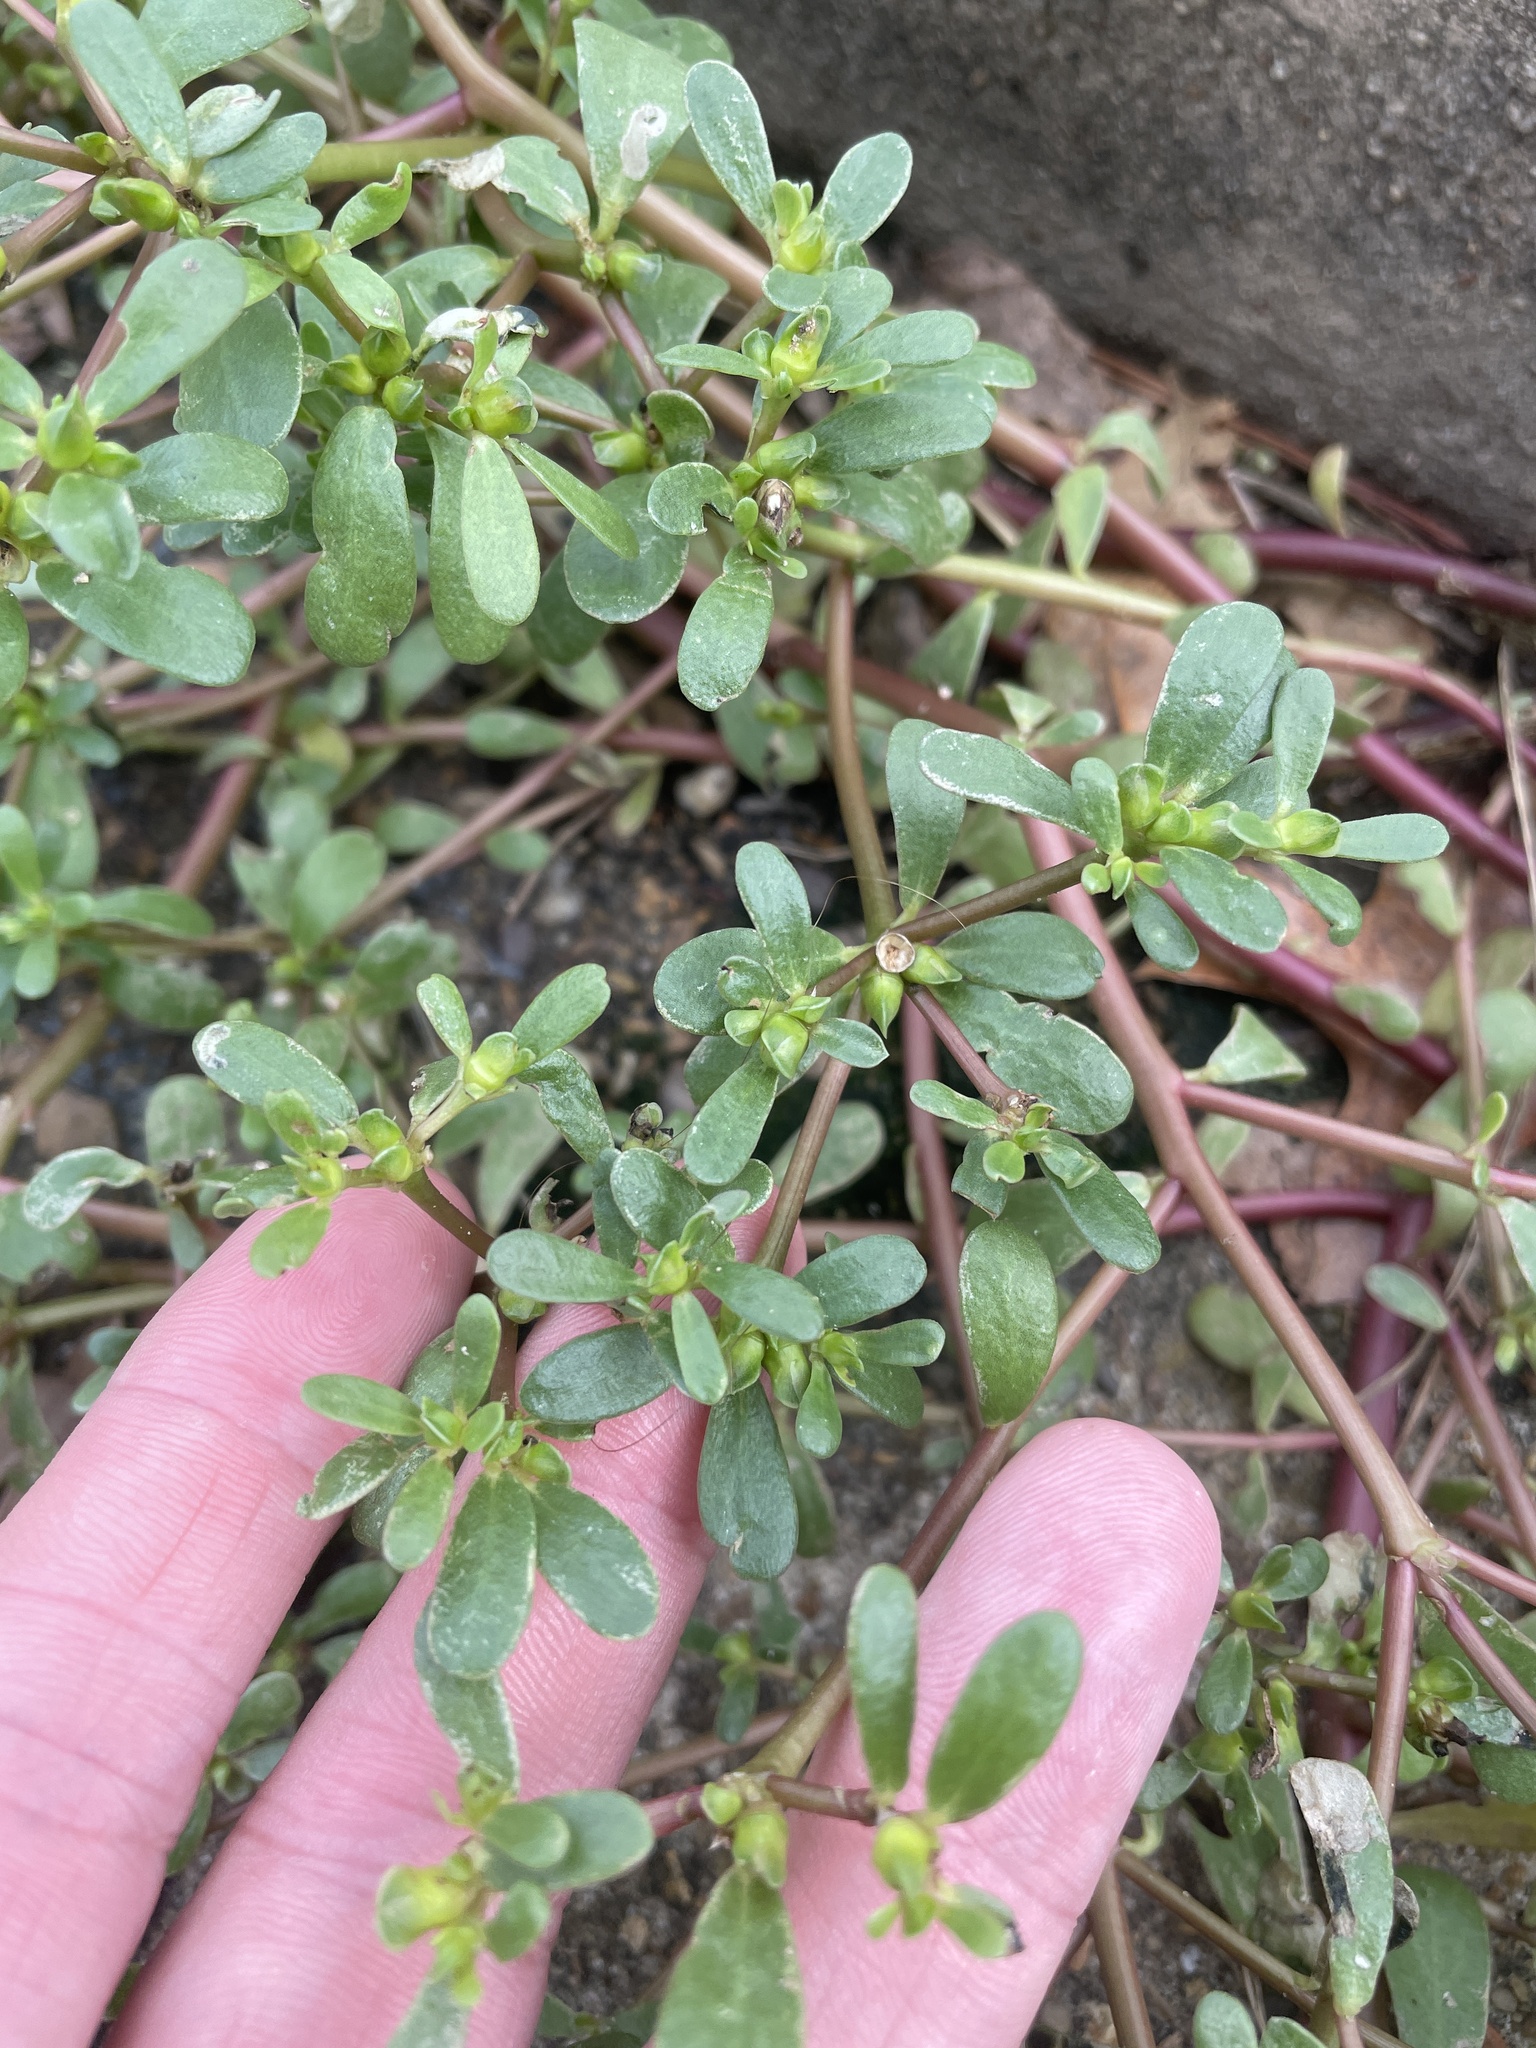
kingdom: Plantae
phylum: Tracheophyta
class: Magnoliopsida
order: Caryophyllales
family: Portulacaceae
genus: Portulaca
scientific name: Portulaca oleracea
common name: Common purslane
